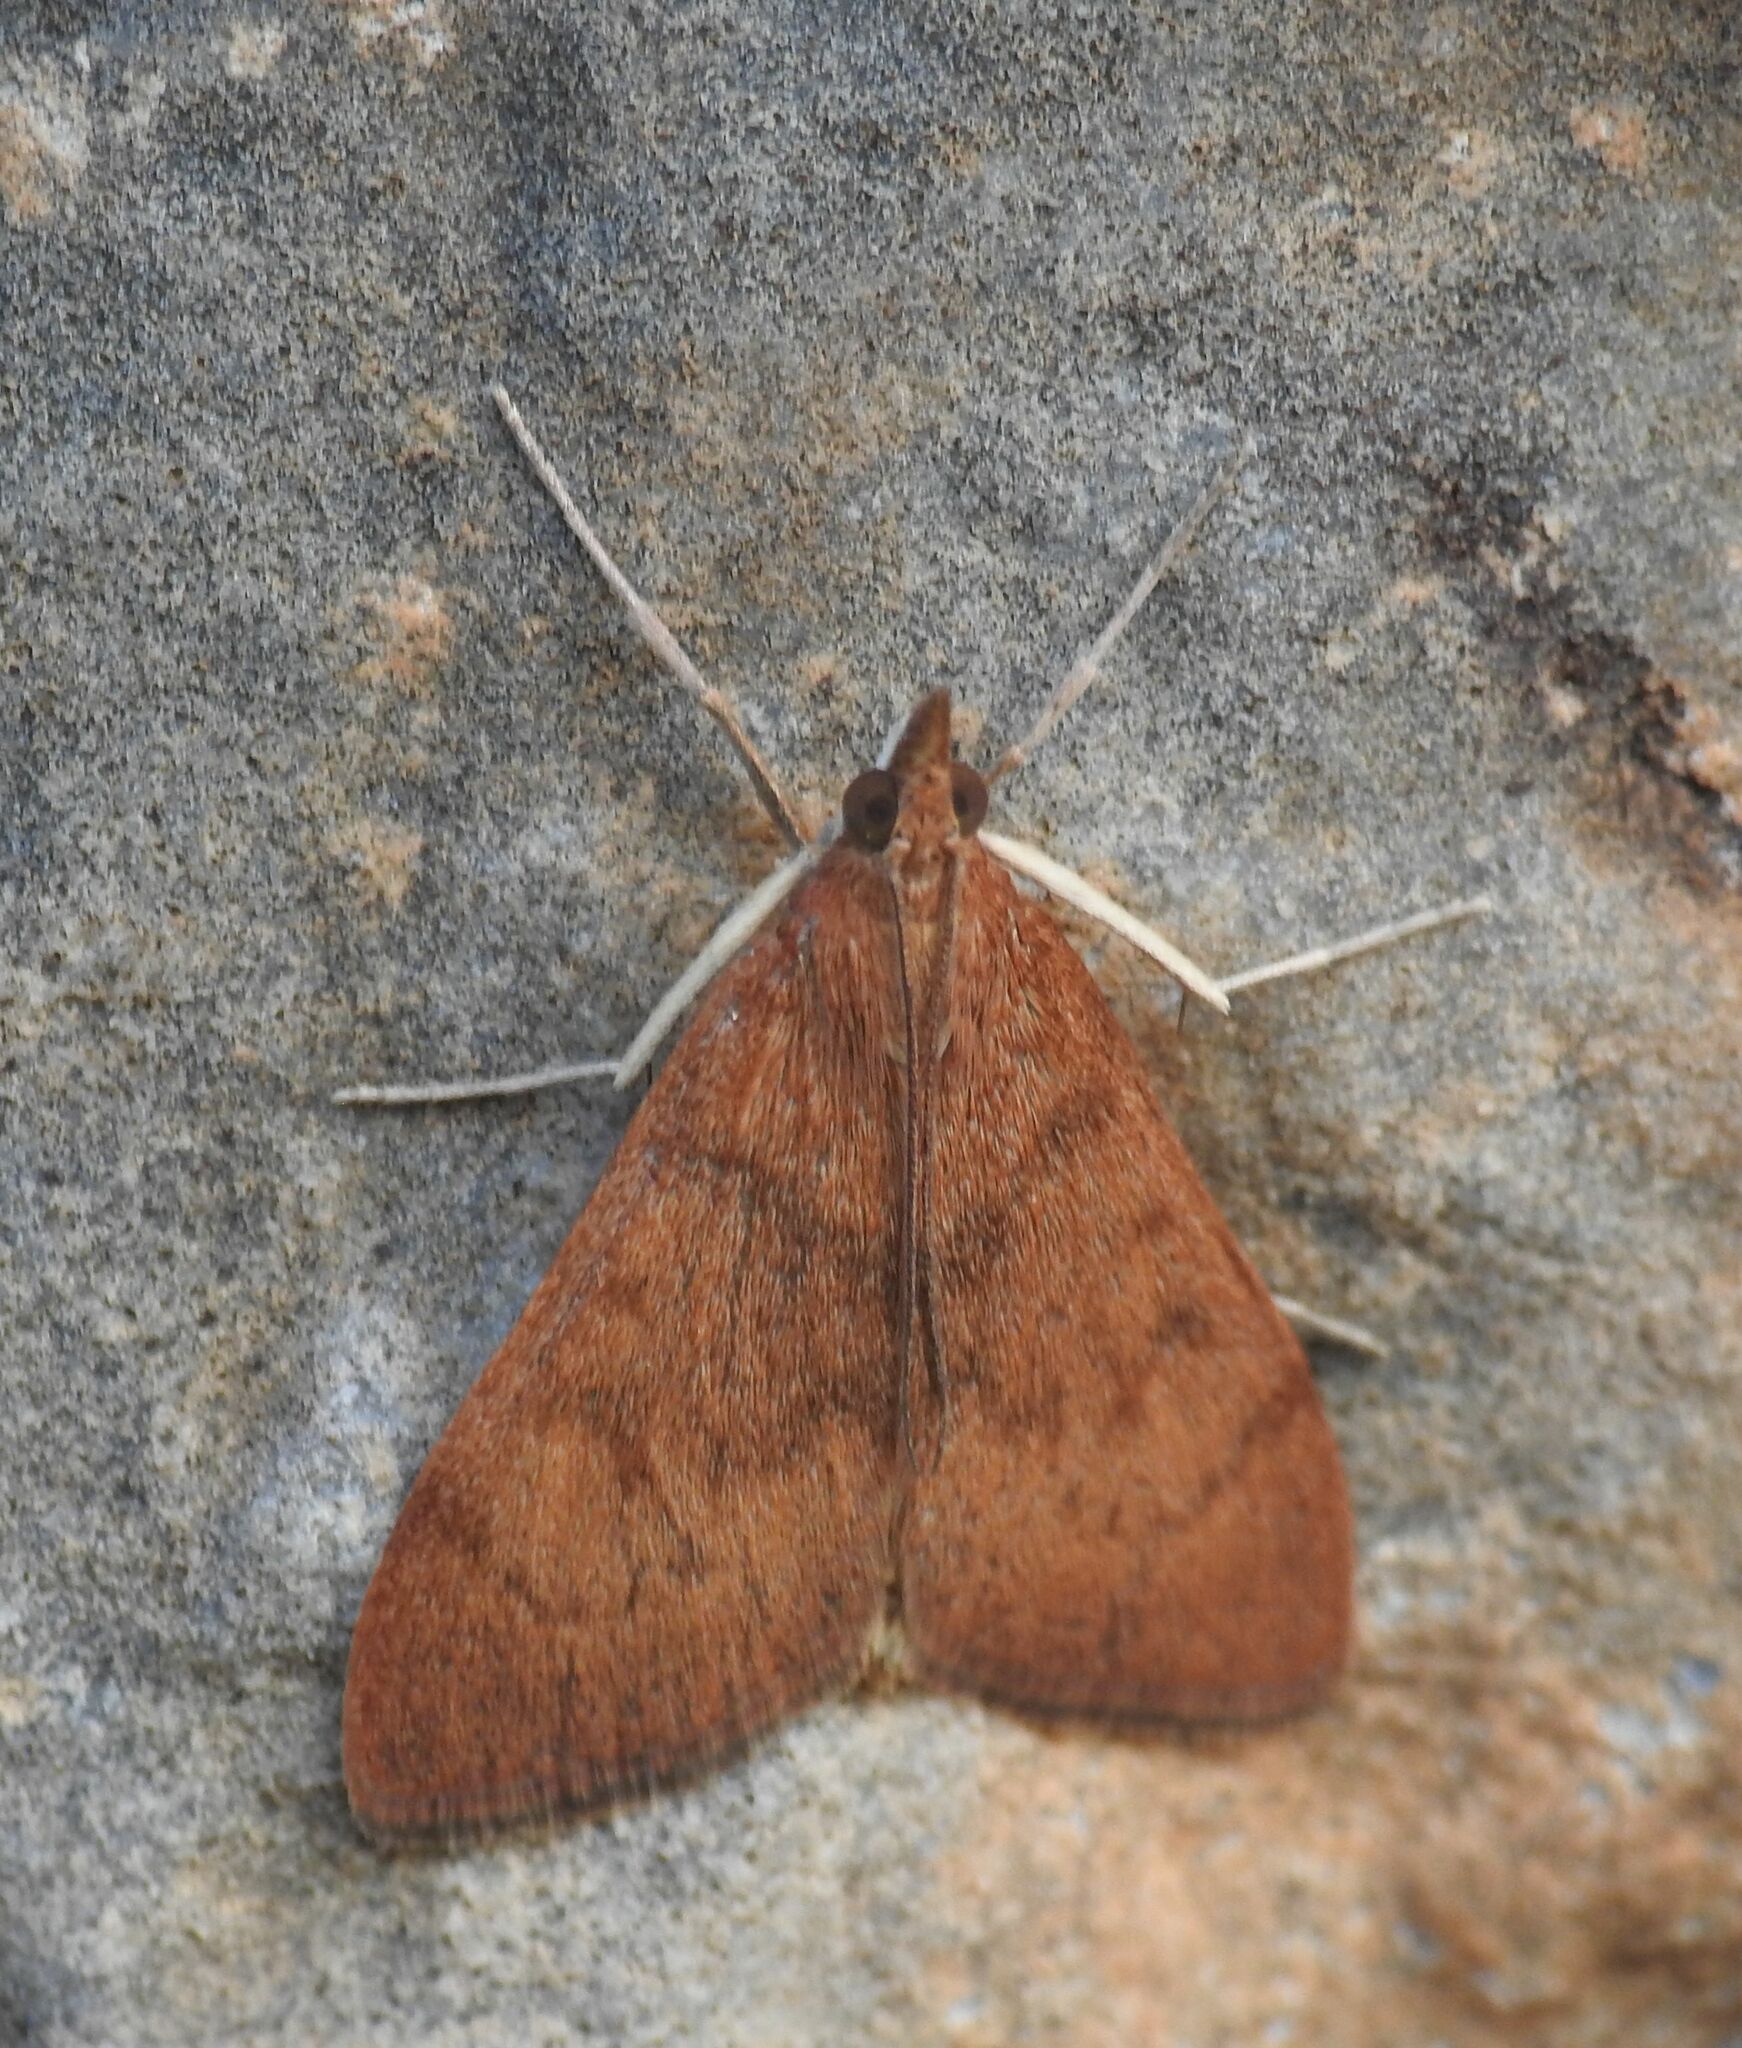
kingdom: Animalia
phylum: Arthropoda
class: Insecta
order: Lepidoptera
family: Crambidae
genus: Uresiphita
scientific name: Uresiphita gilvata
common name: Yellow-underwing pearl
